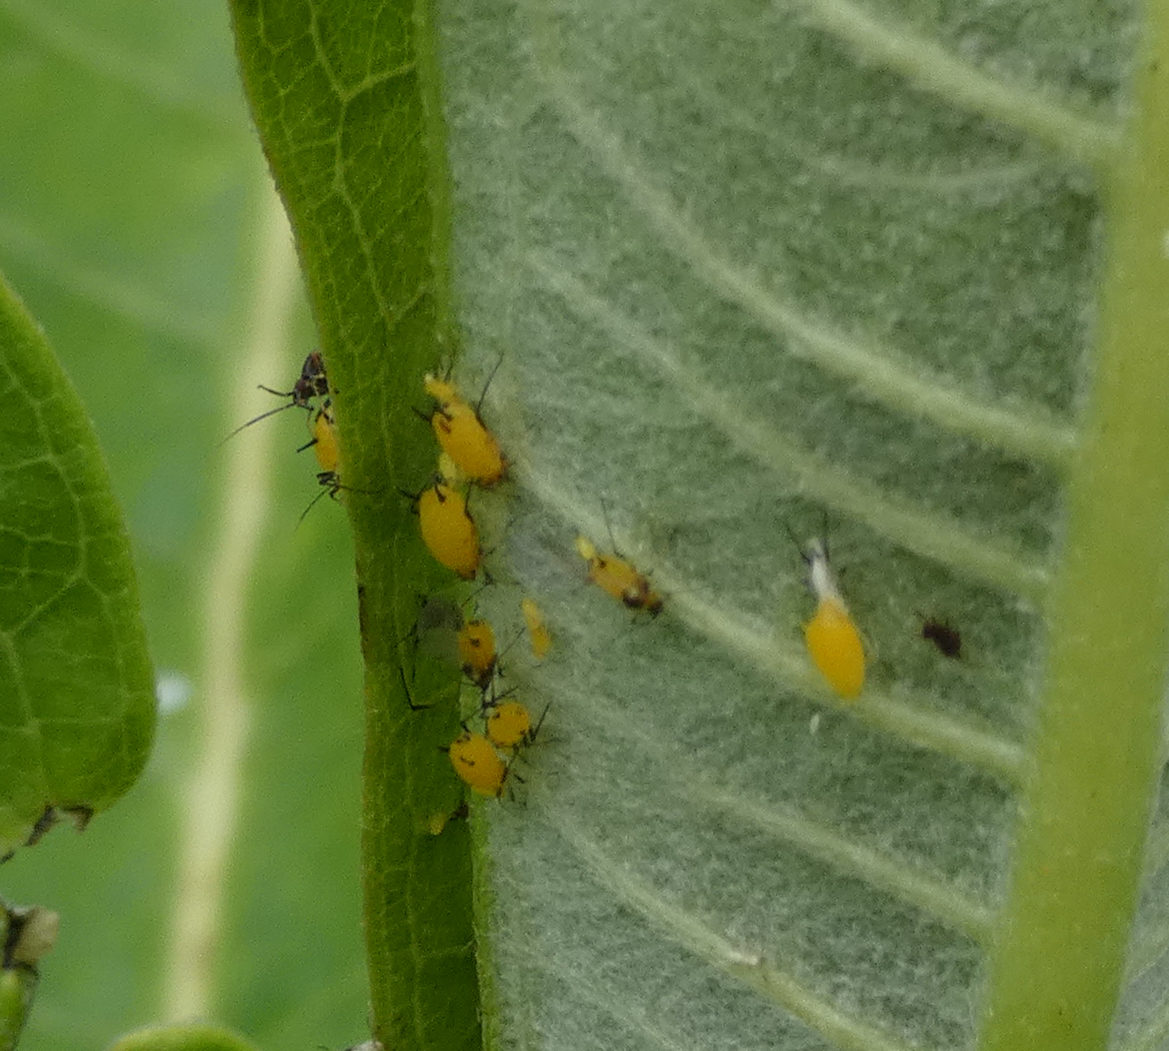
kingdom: Animalia
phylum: Arthropoda
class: Insecta
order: Hemiptera
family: Aphididae
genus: Aphis
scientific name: Aphis nerii
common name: Oleander aphid
